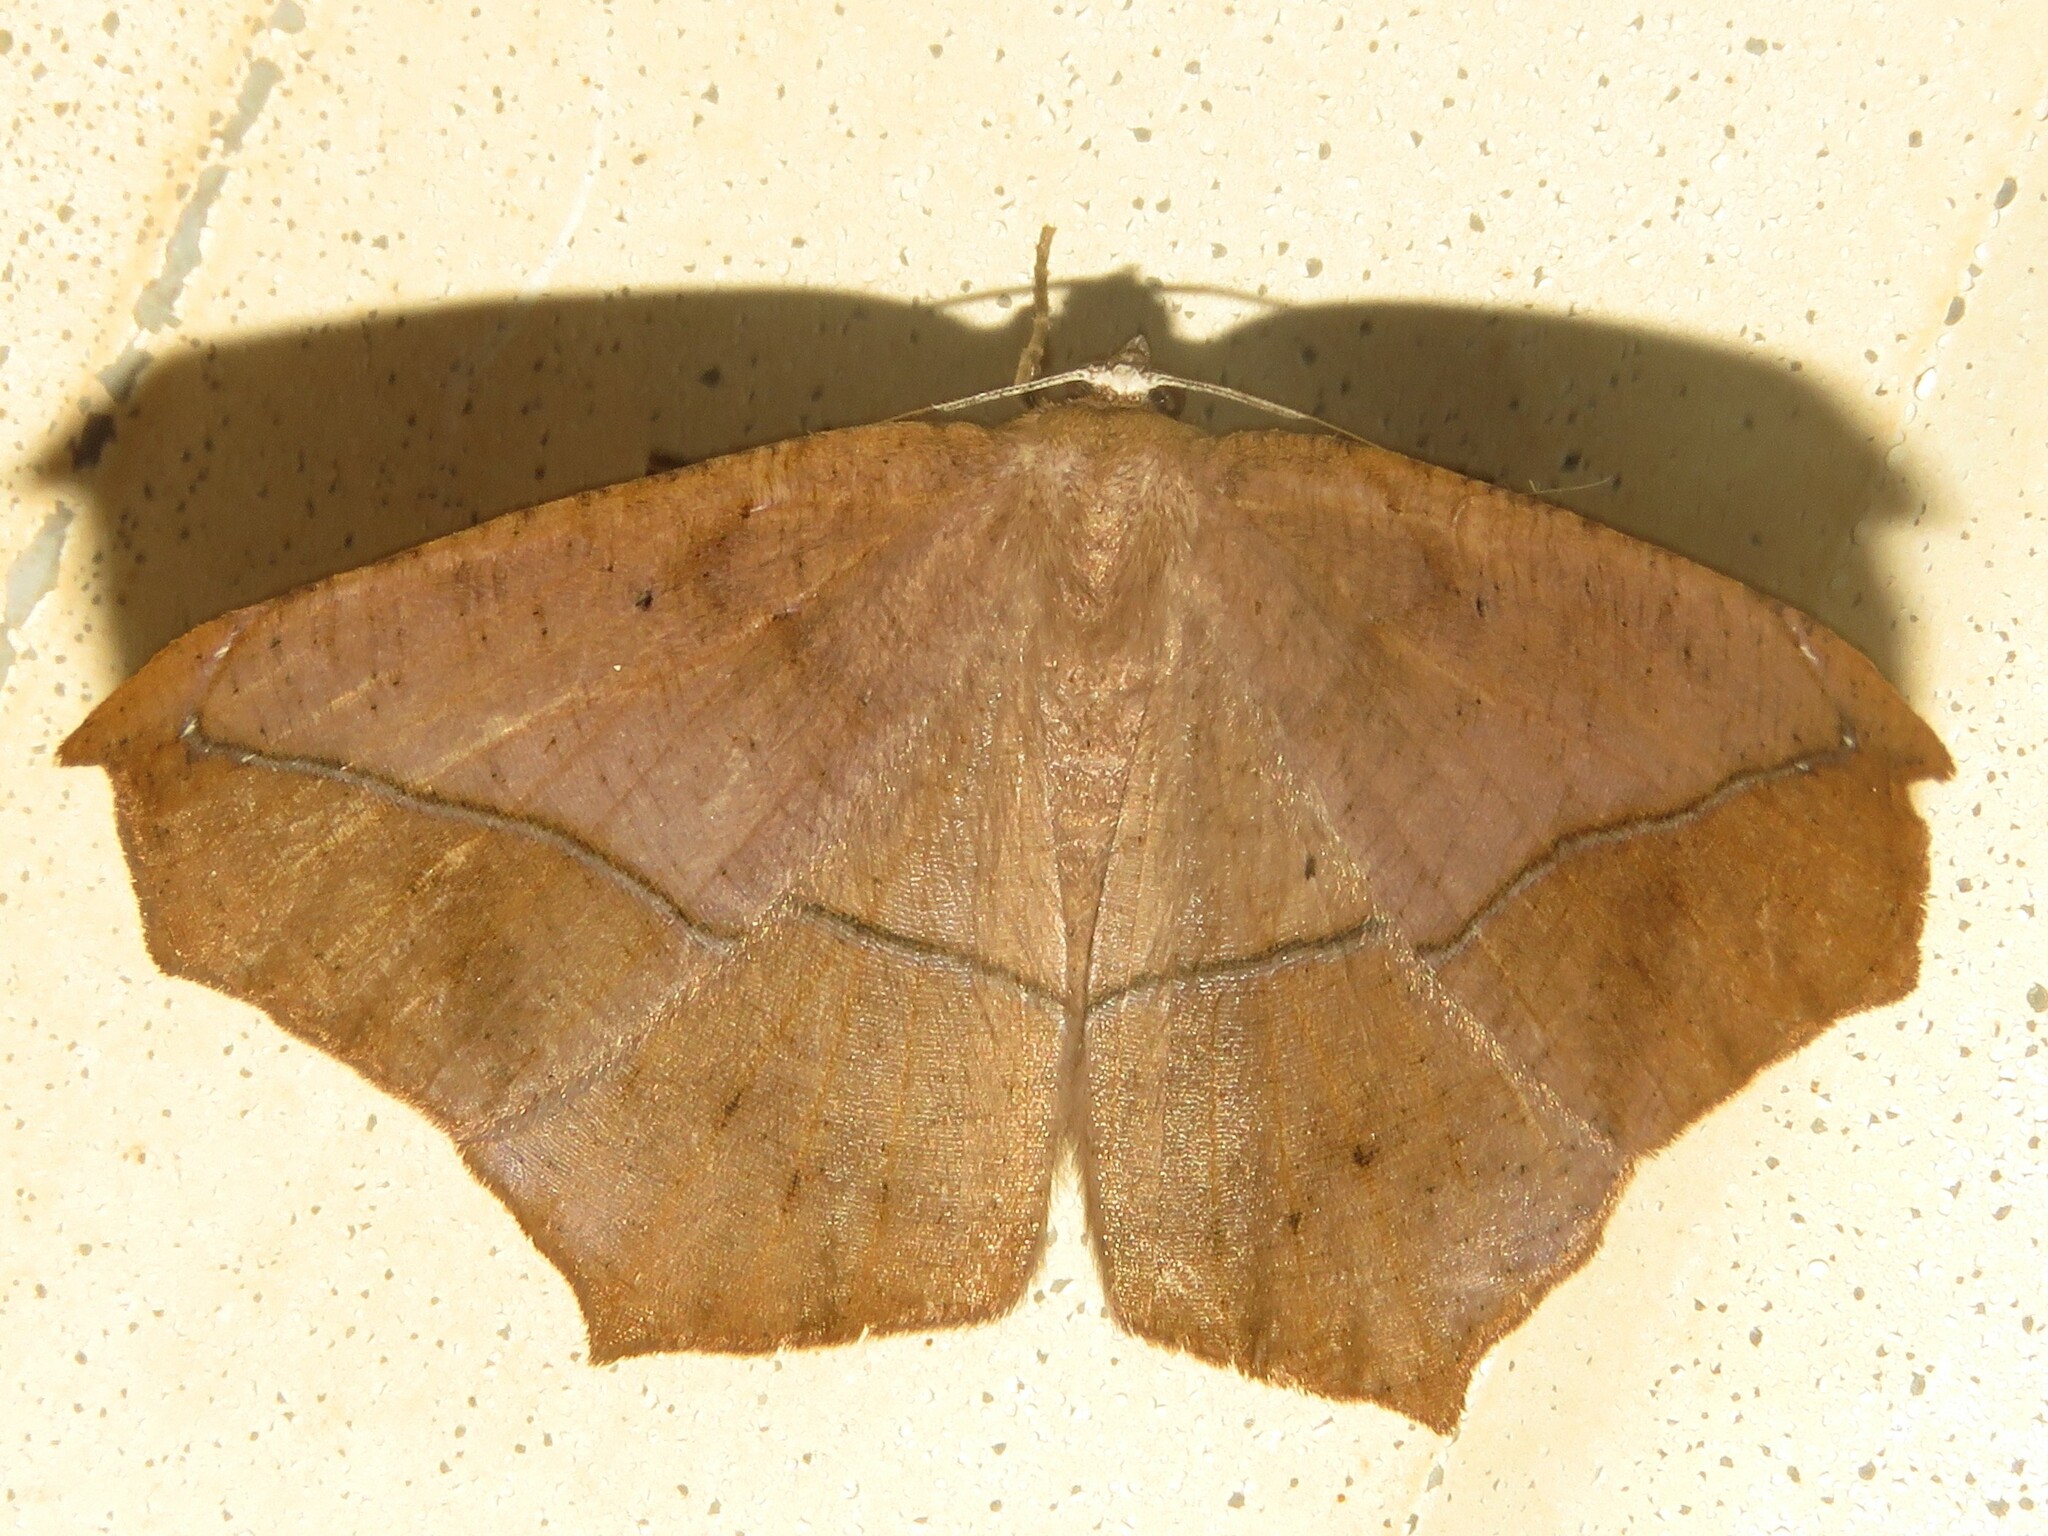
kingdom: Animalia
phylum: Arthropoda
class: Insecta
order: Lepidoptera
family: Geometridae
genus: Prochoerodes
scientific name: Prochoerodes lineola
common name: Large maple spanworm
